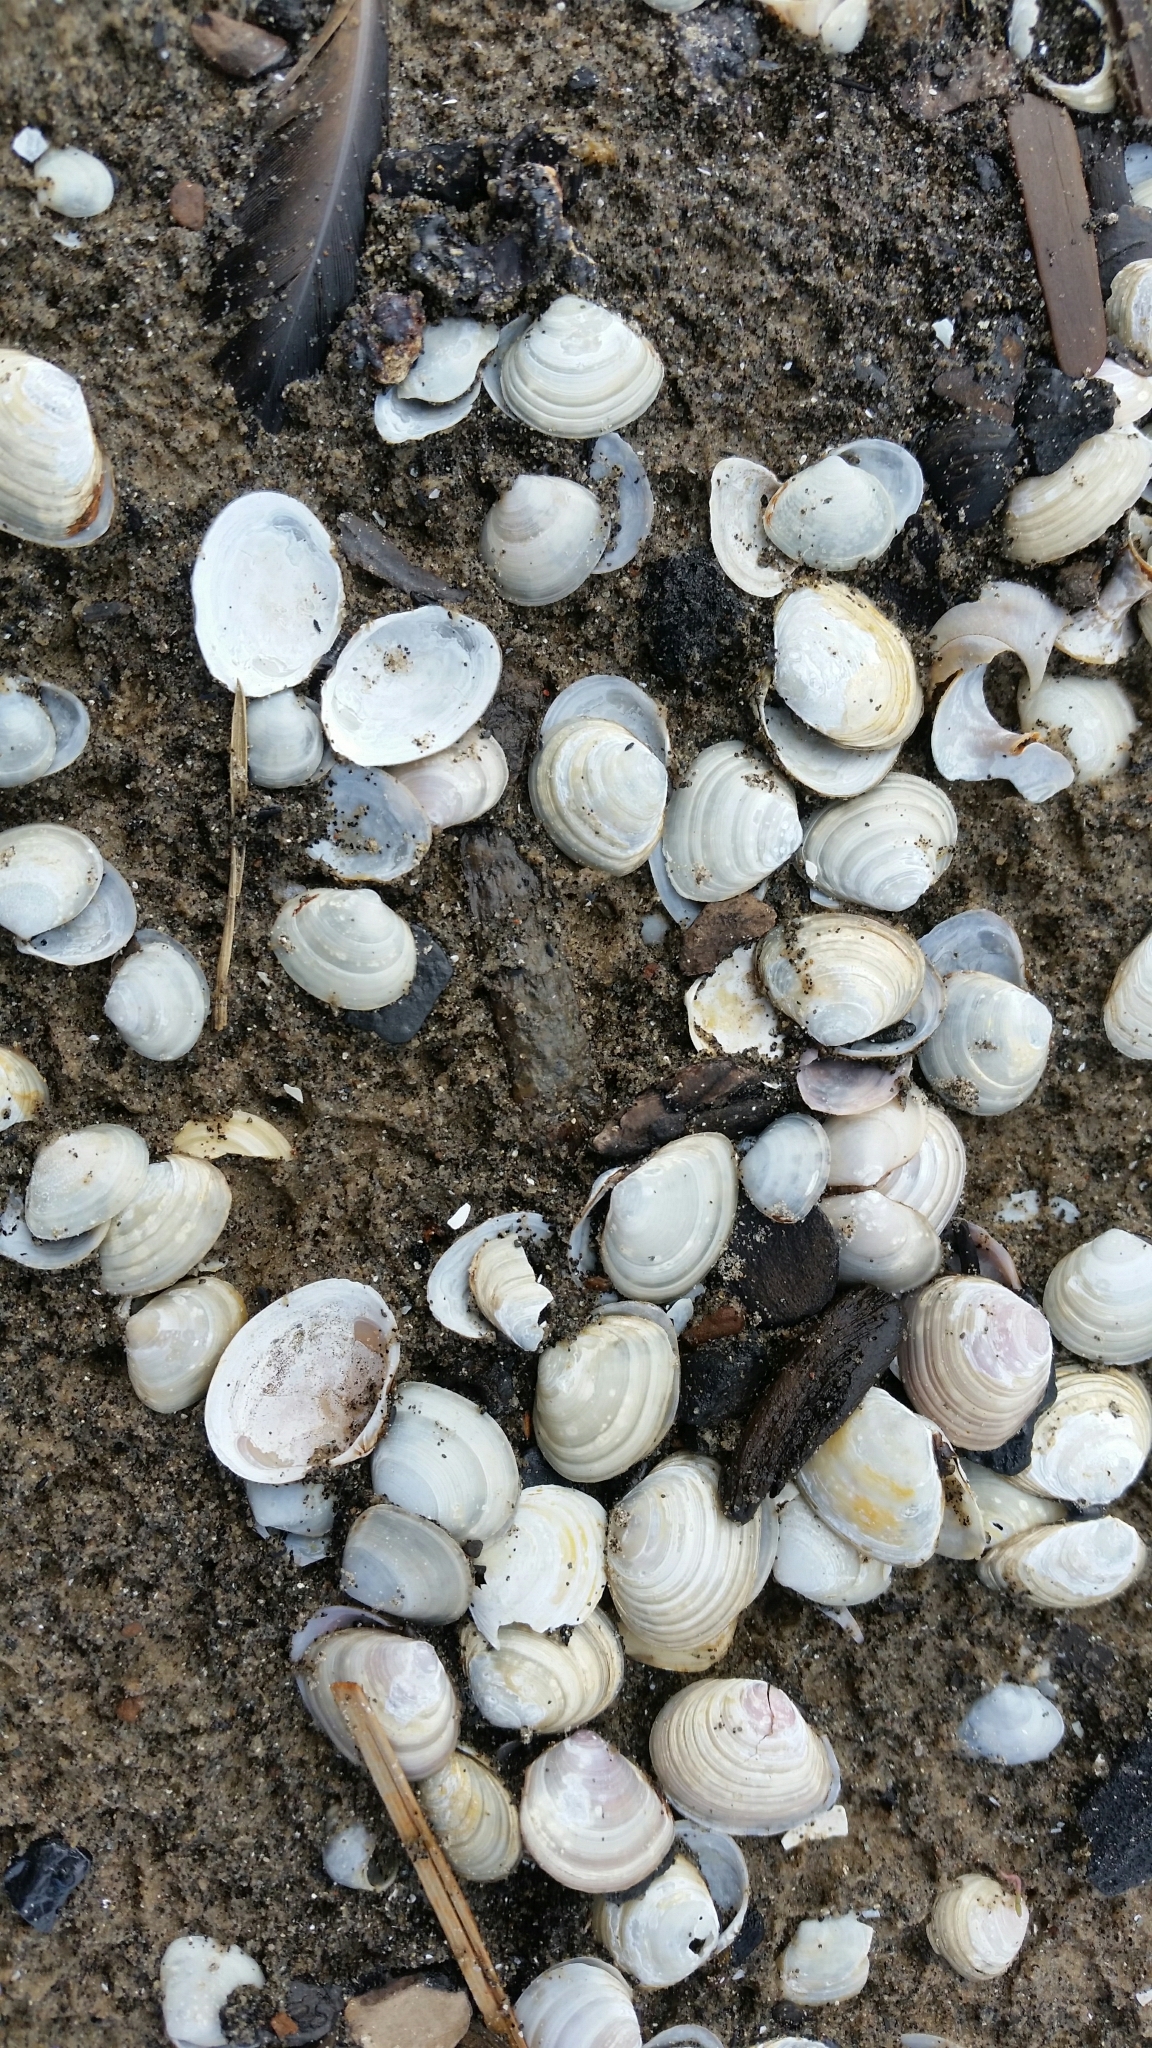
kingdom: Animalia
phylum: Mollusca
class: Bivalvia
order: Cardiida
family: Tellinidae
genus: Macoma
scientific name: Macoma balthica
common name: Baltic tellin
